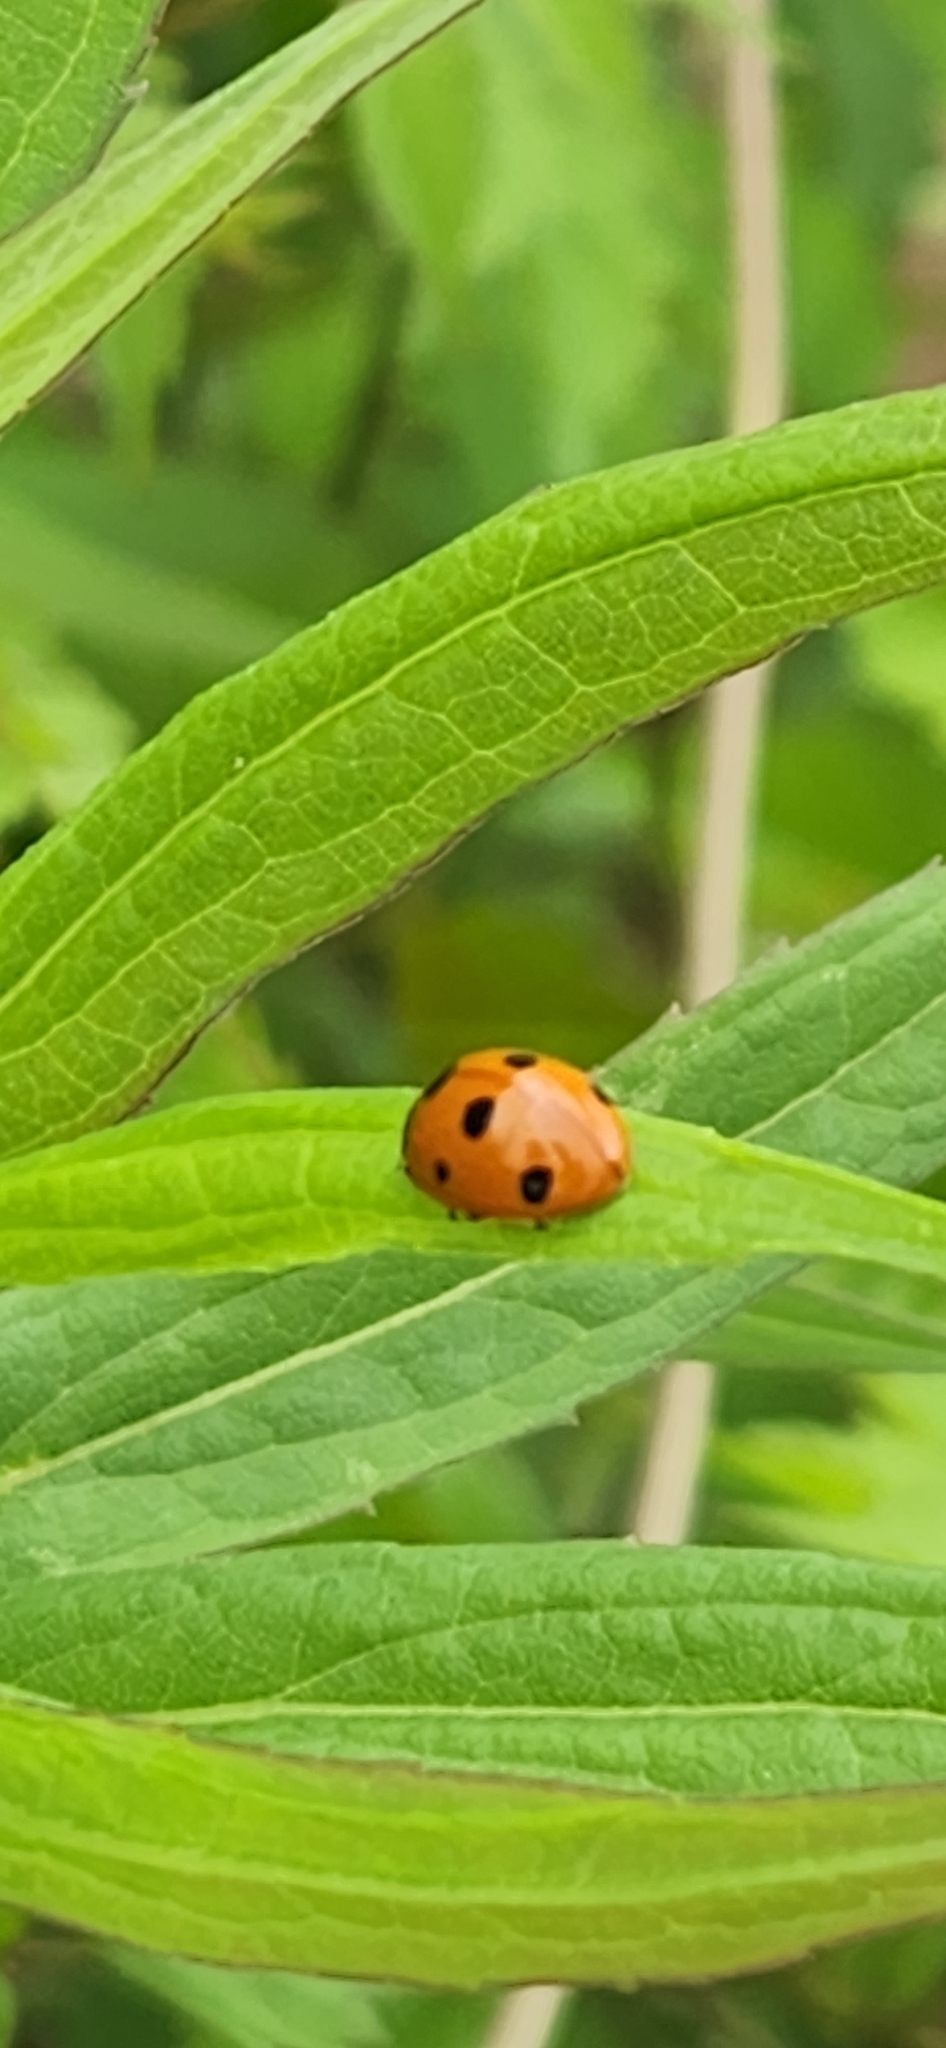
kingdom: Animalia
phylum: Arthropoda
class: Insecta
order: Coleoptera
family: Coccinellidae
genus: Coccinella
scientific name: Coccinella septempunctata
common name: Sevenspotted lady beetle
